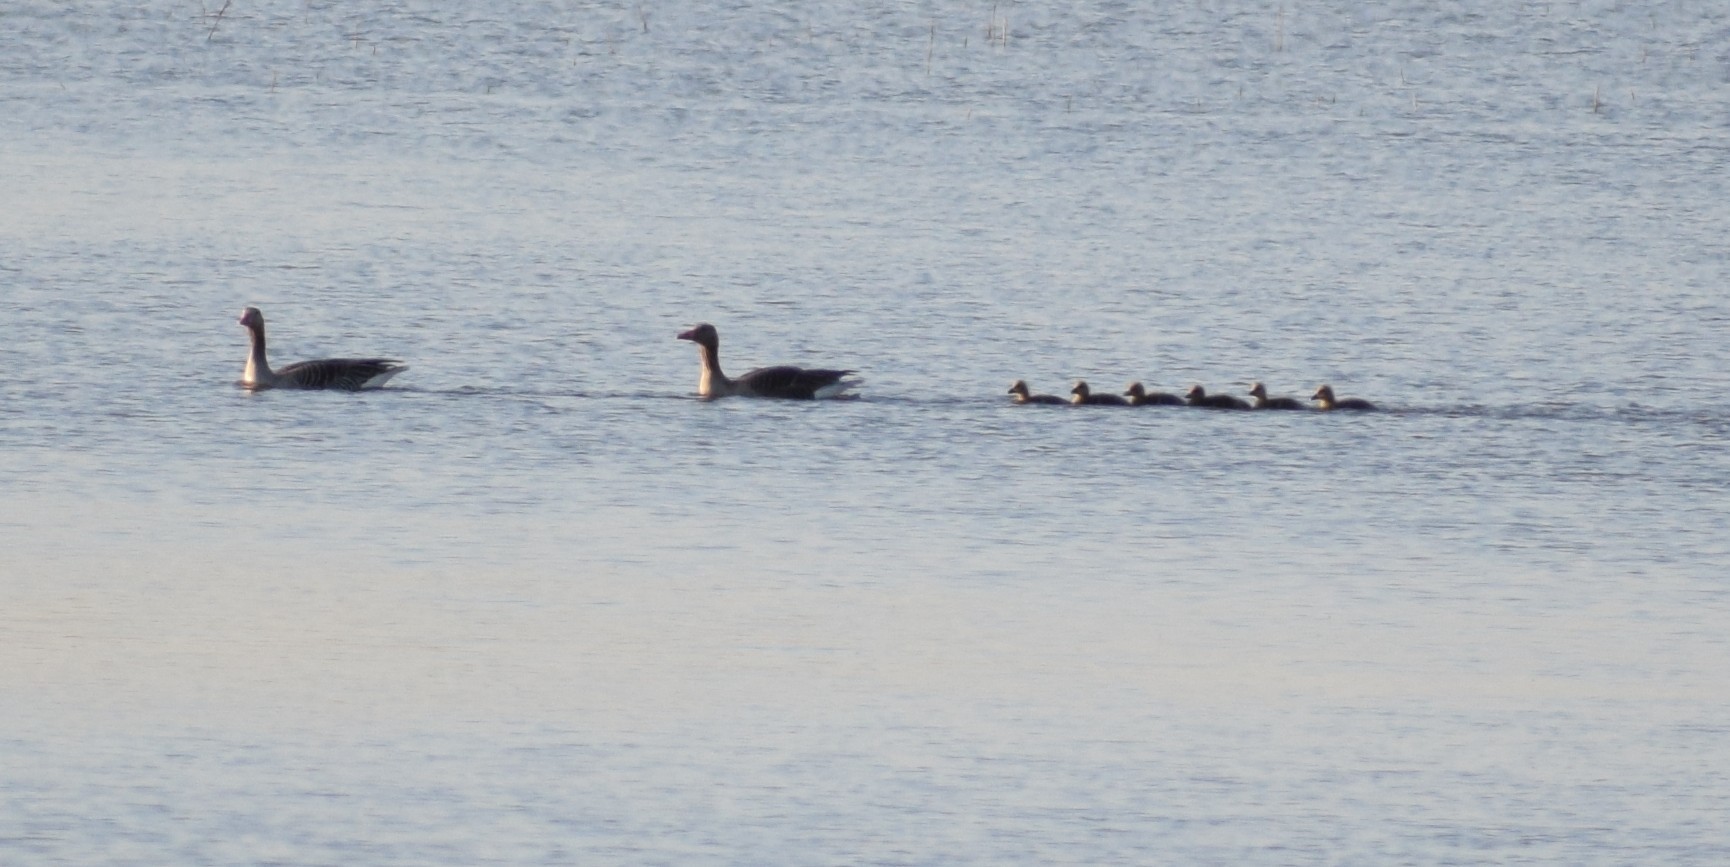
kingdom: Animalia
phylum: Chordata
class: Aves
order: Anseriformes
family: Anatidae
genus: Anser
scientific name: Anser anser
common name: Greylag goose
